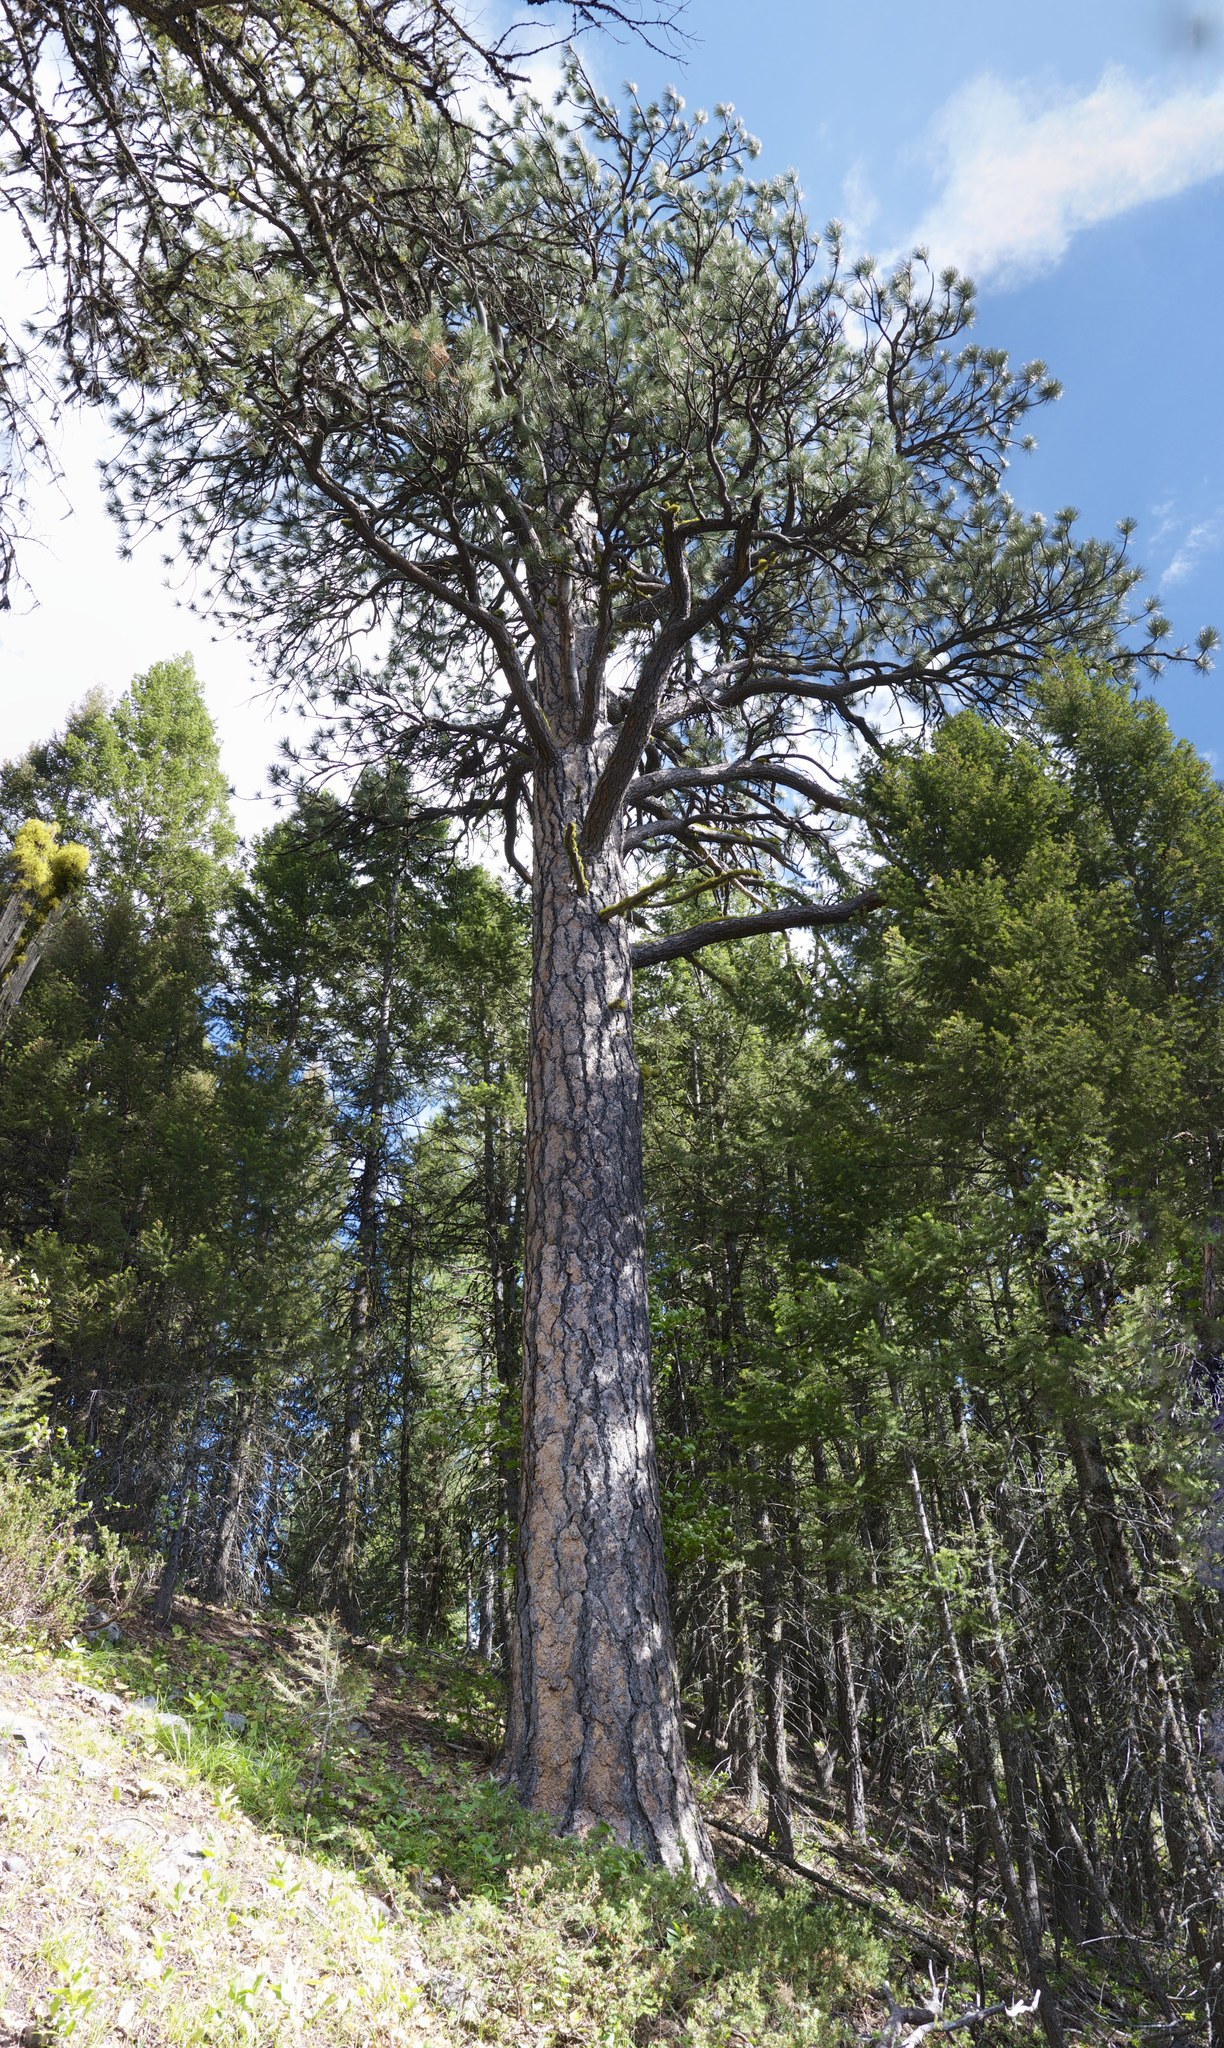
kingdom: Plantae
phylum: Tracheophyta
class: Pinopsida
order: Pinales
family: Pinaceae
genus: Pinus
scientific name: Pinus ponderosa
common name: Western yellow-pine
